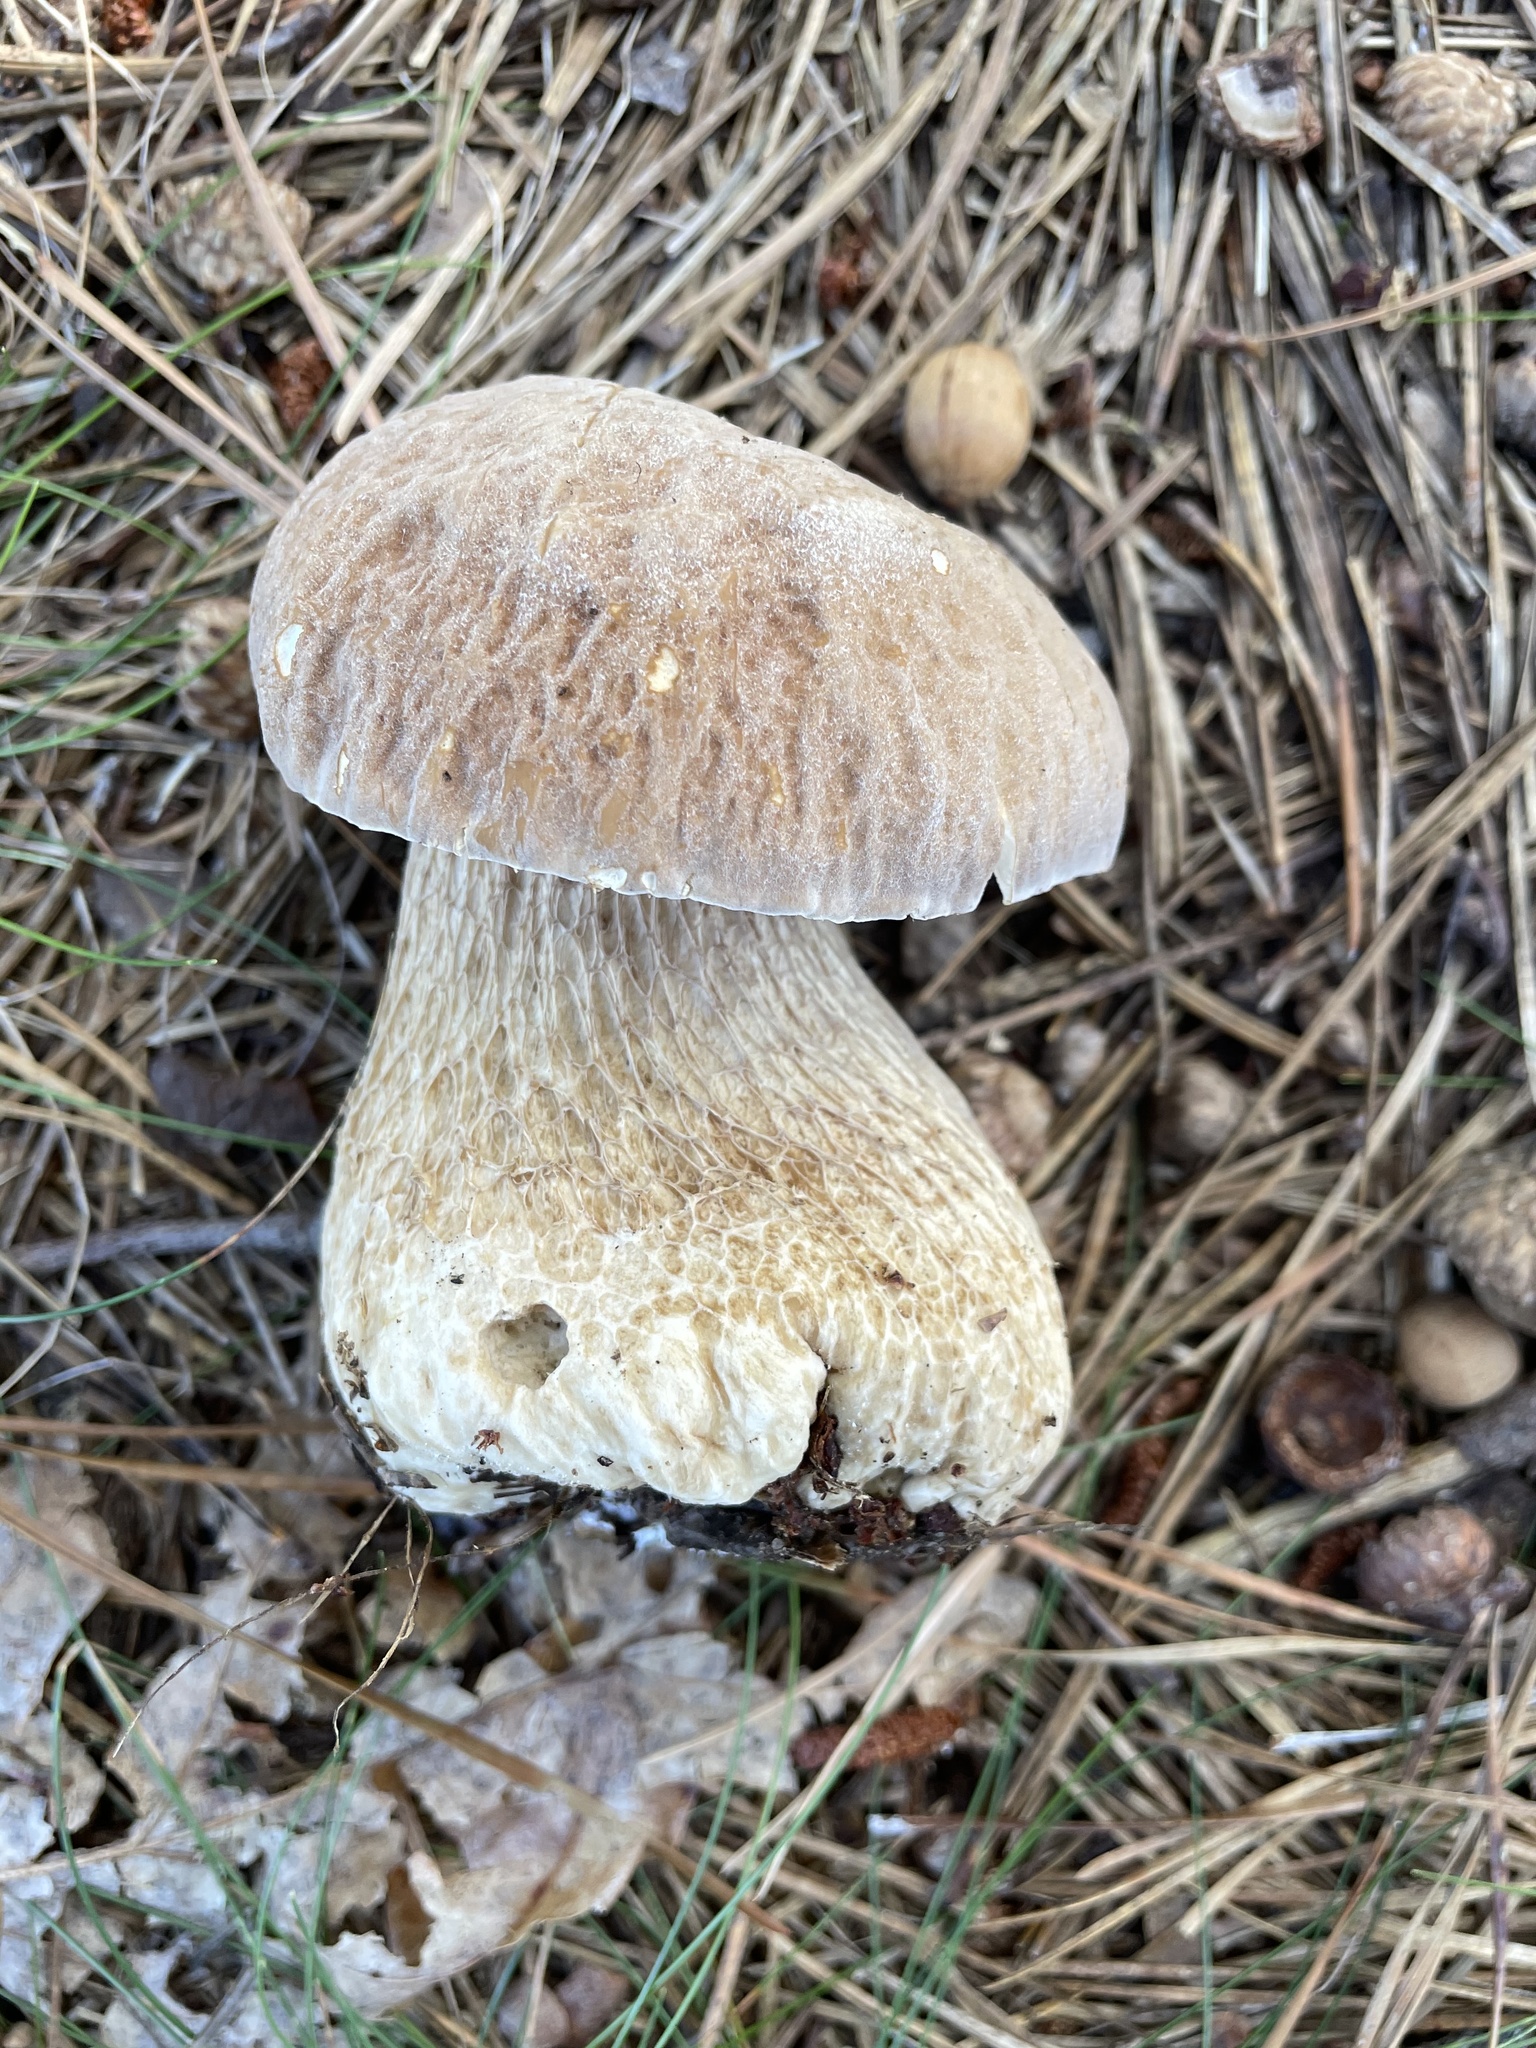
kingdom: Fungi
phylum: Basidiomycota
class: Agaricomycetes
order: Boletales
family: Boletaceae
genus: Boletus
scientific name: Boletus variipes
